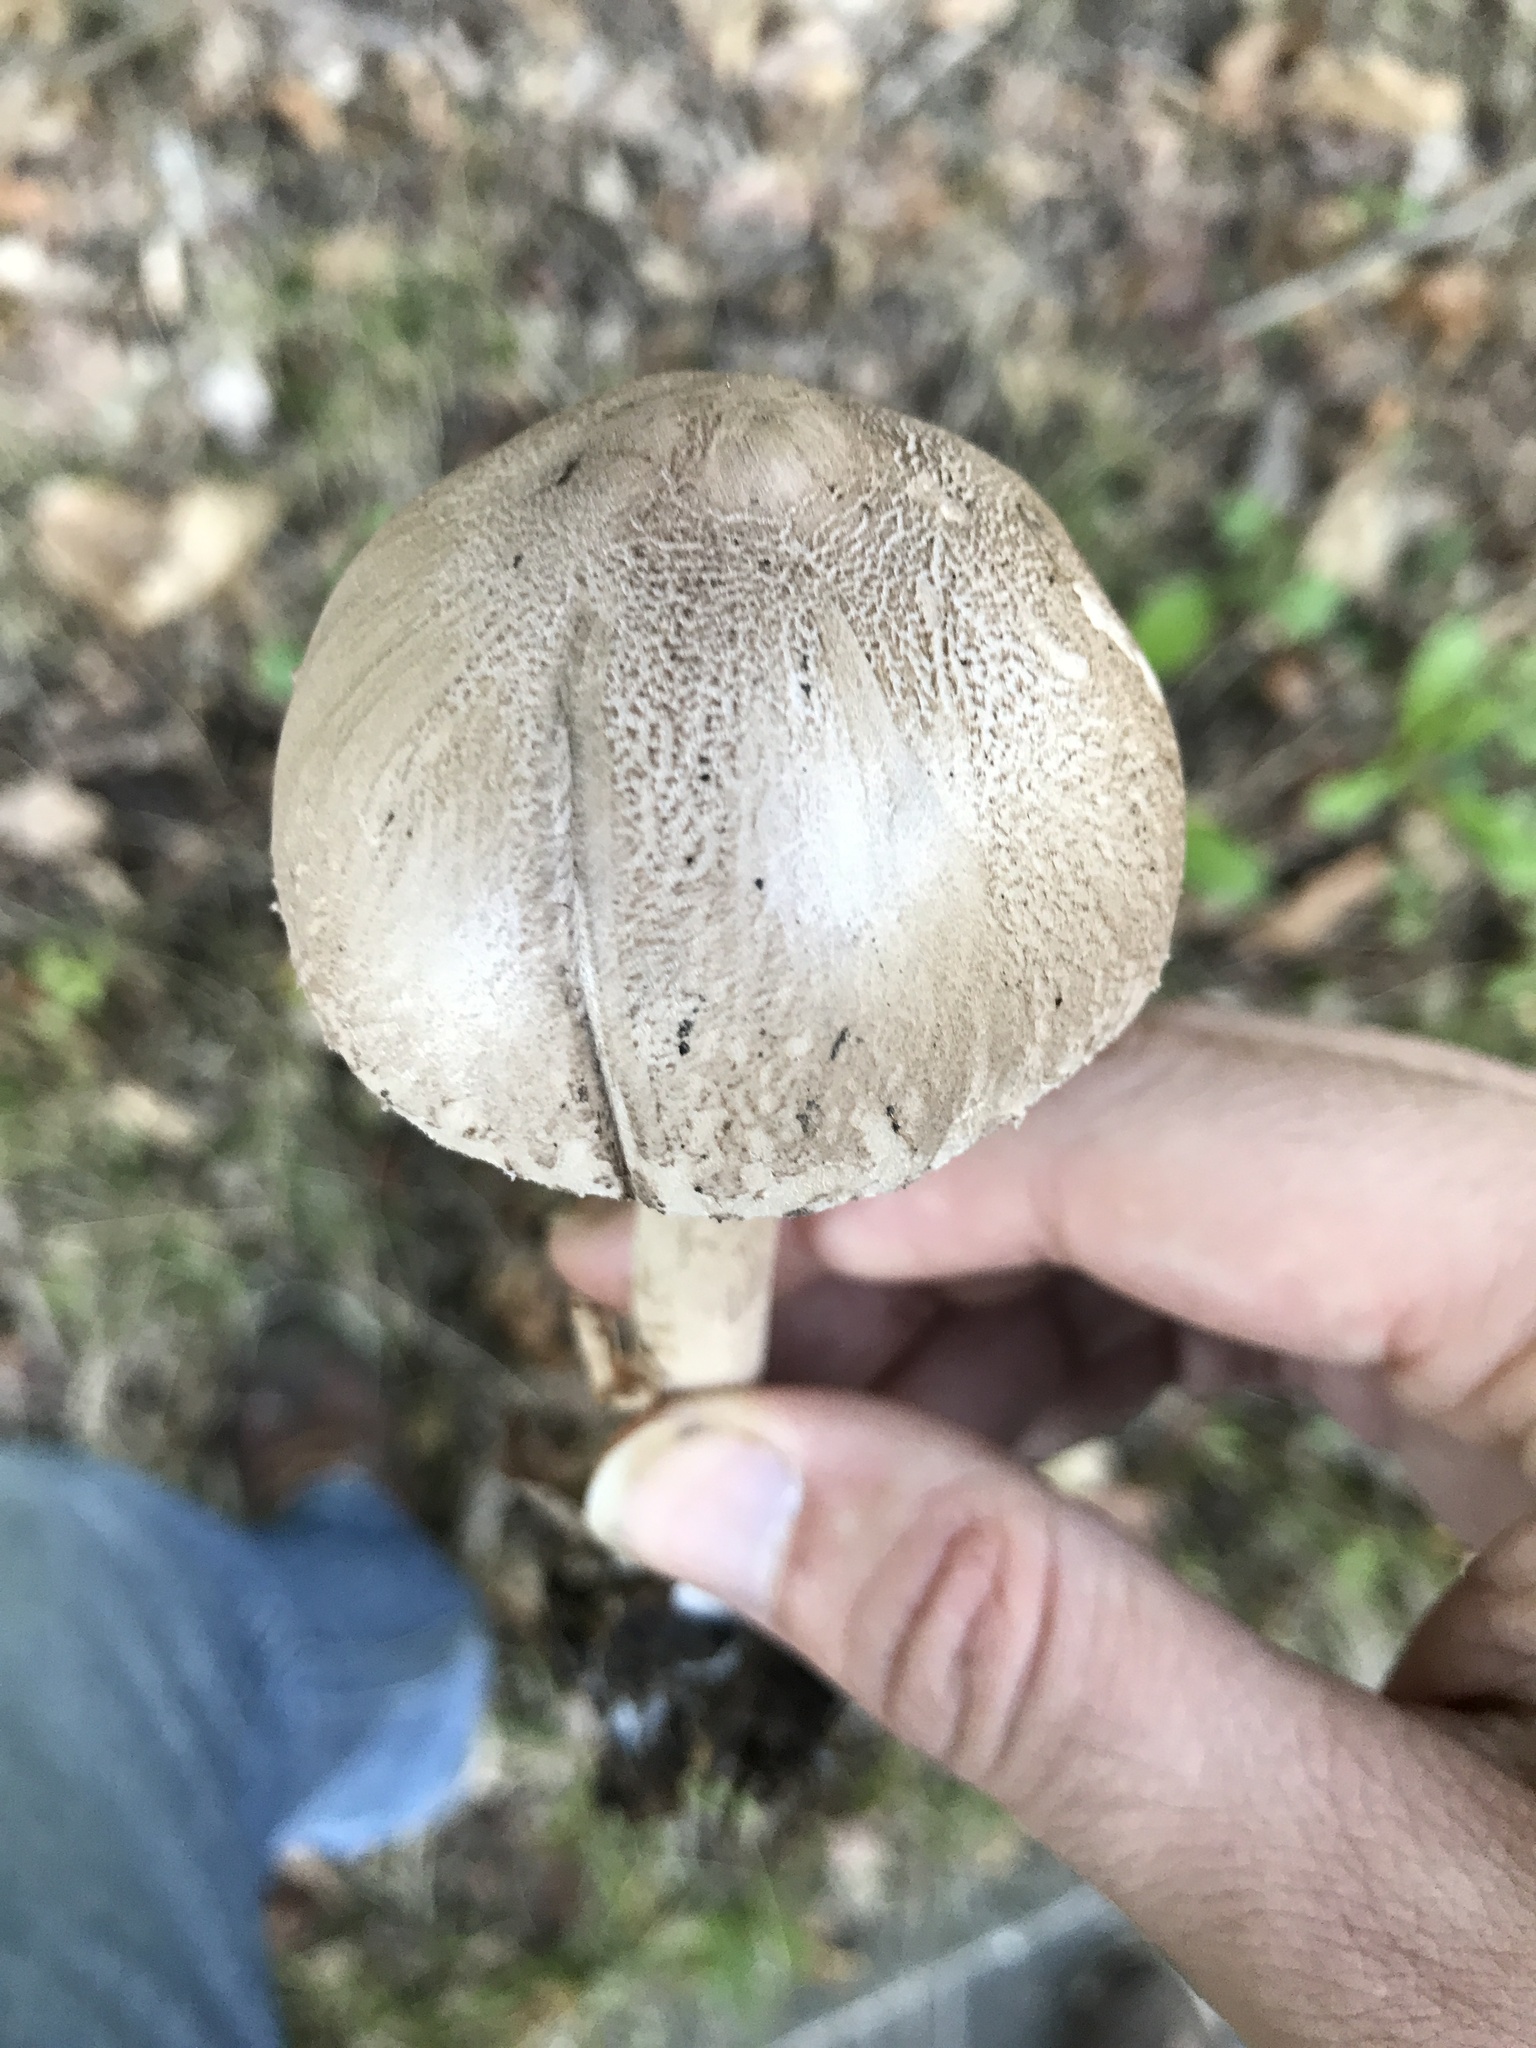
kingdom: Fungi
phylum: Basidiomycota
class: Agaricomycetes
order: Agaricales
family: Agaricaceae
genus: Macrolepiota
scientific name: Macrolepiota mastoidea
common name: Slender parasol
